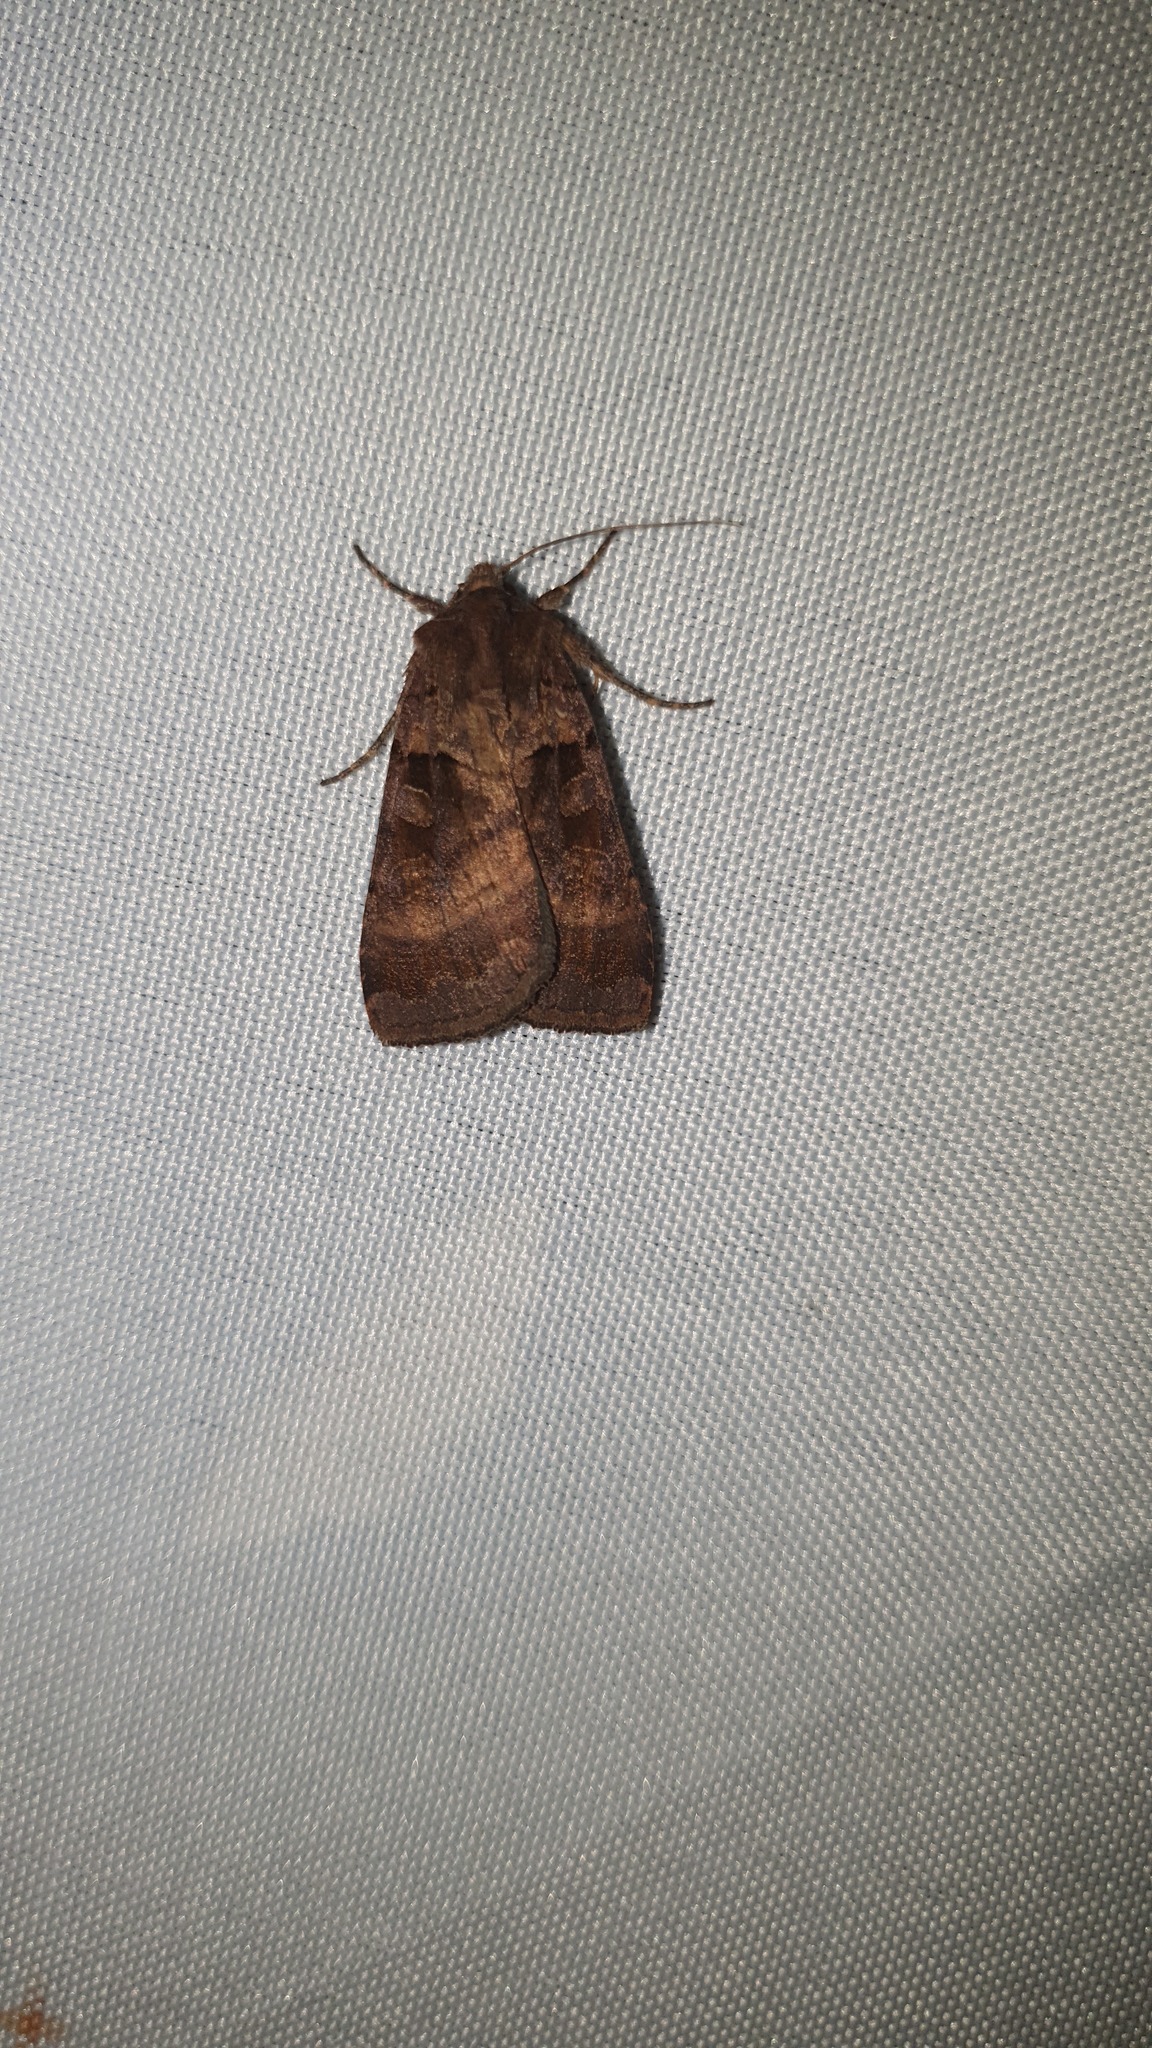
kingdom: Animalia
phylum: Arthropoda
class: Insecta
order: Lepidoptera
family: Noctuidae
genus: Xestia
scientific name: Xestia stigmatica
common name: Square-spotted clay
